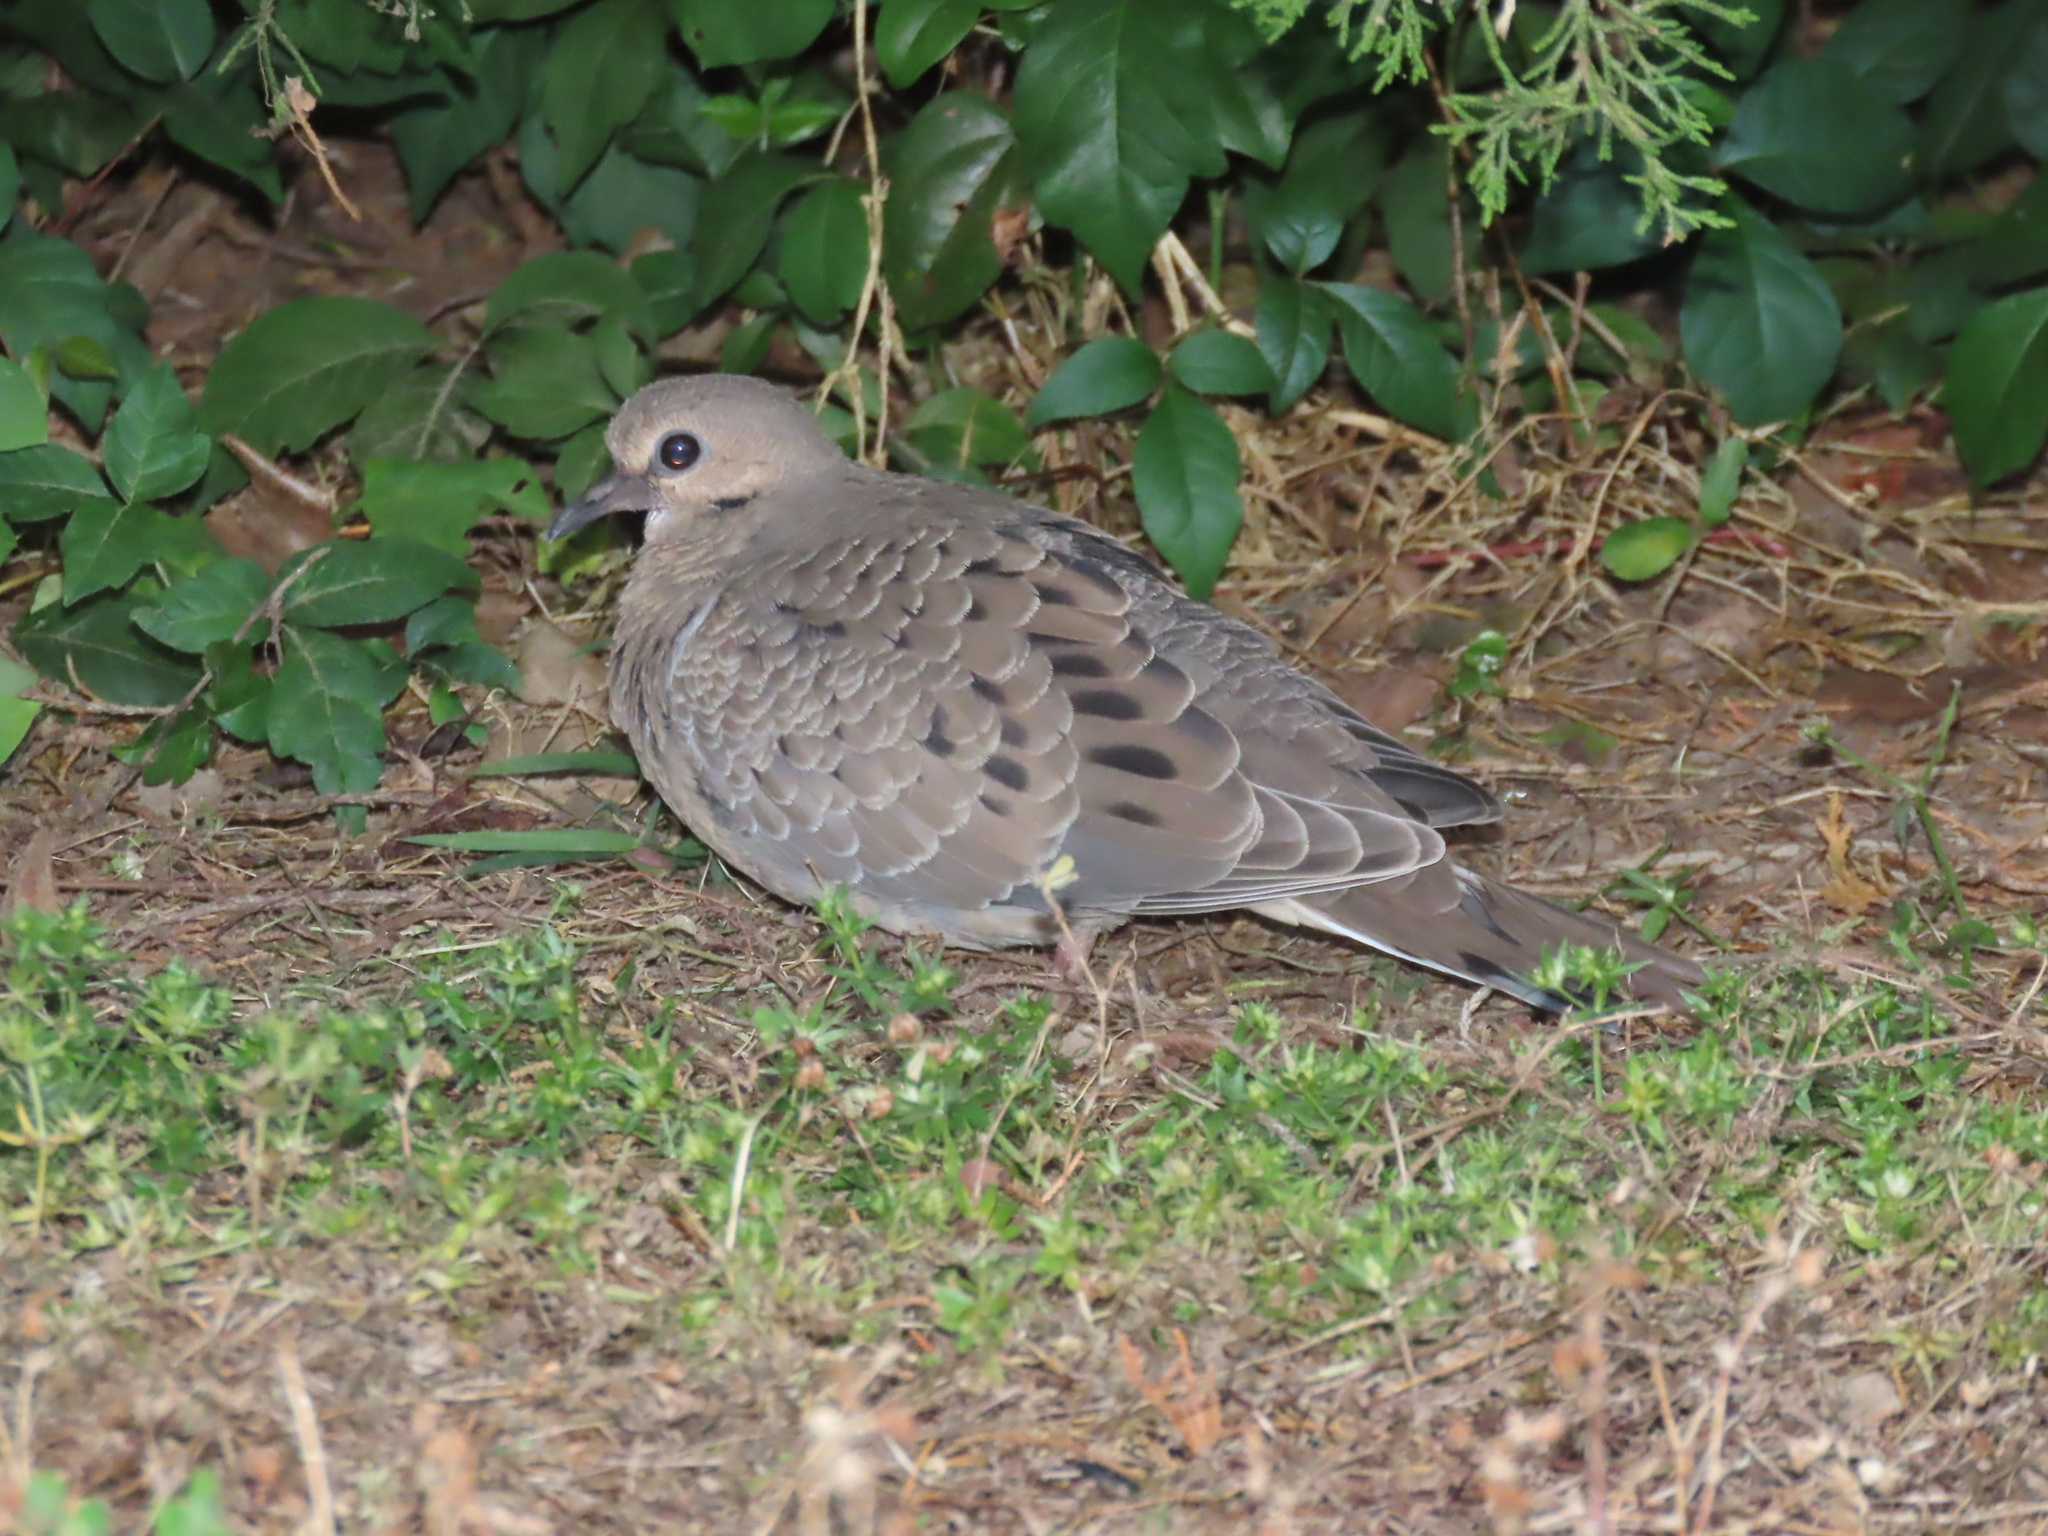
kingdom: Animalia
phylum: Chordata
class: Aves
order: Columbiformes
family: Columbidae
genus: Zenaida
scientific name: Zenaida macroura
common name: Mourning dove
